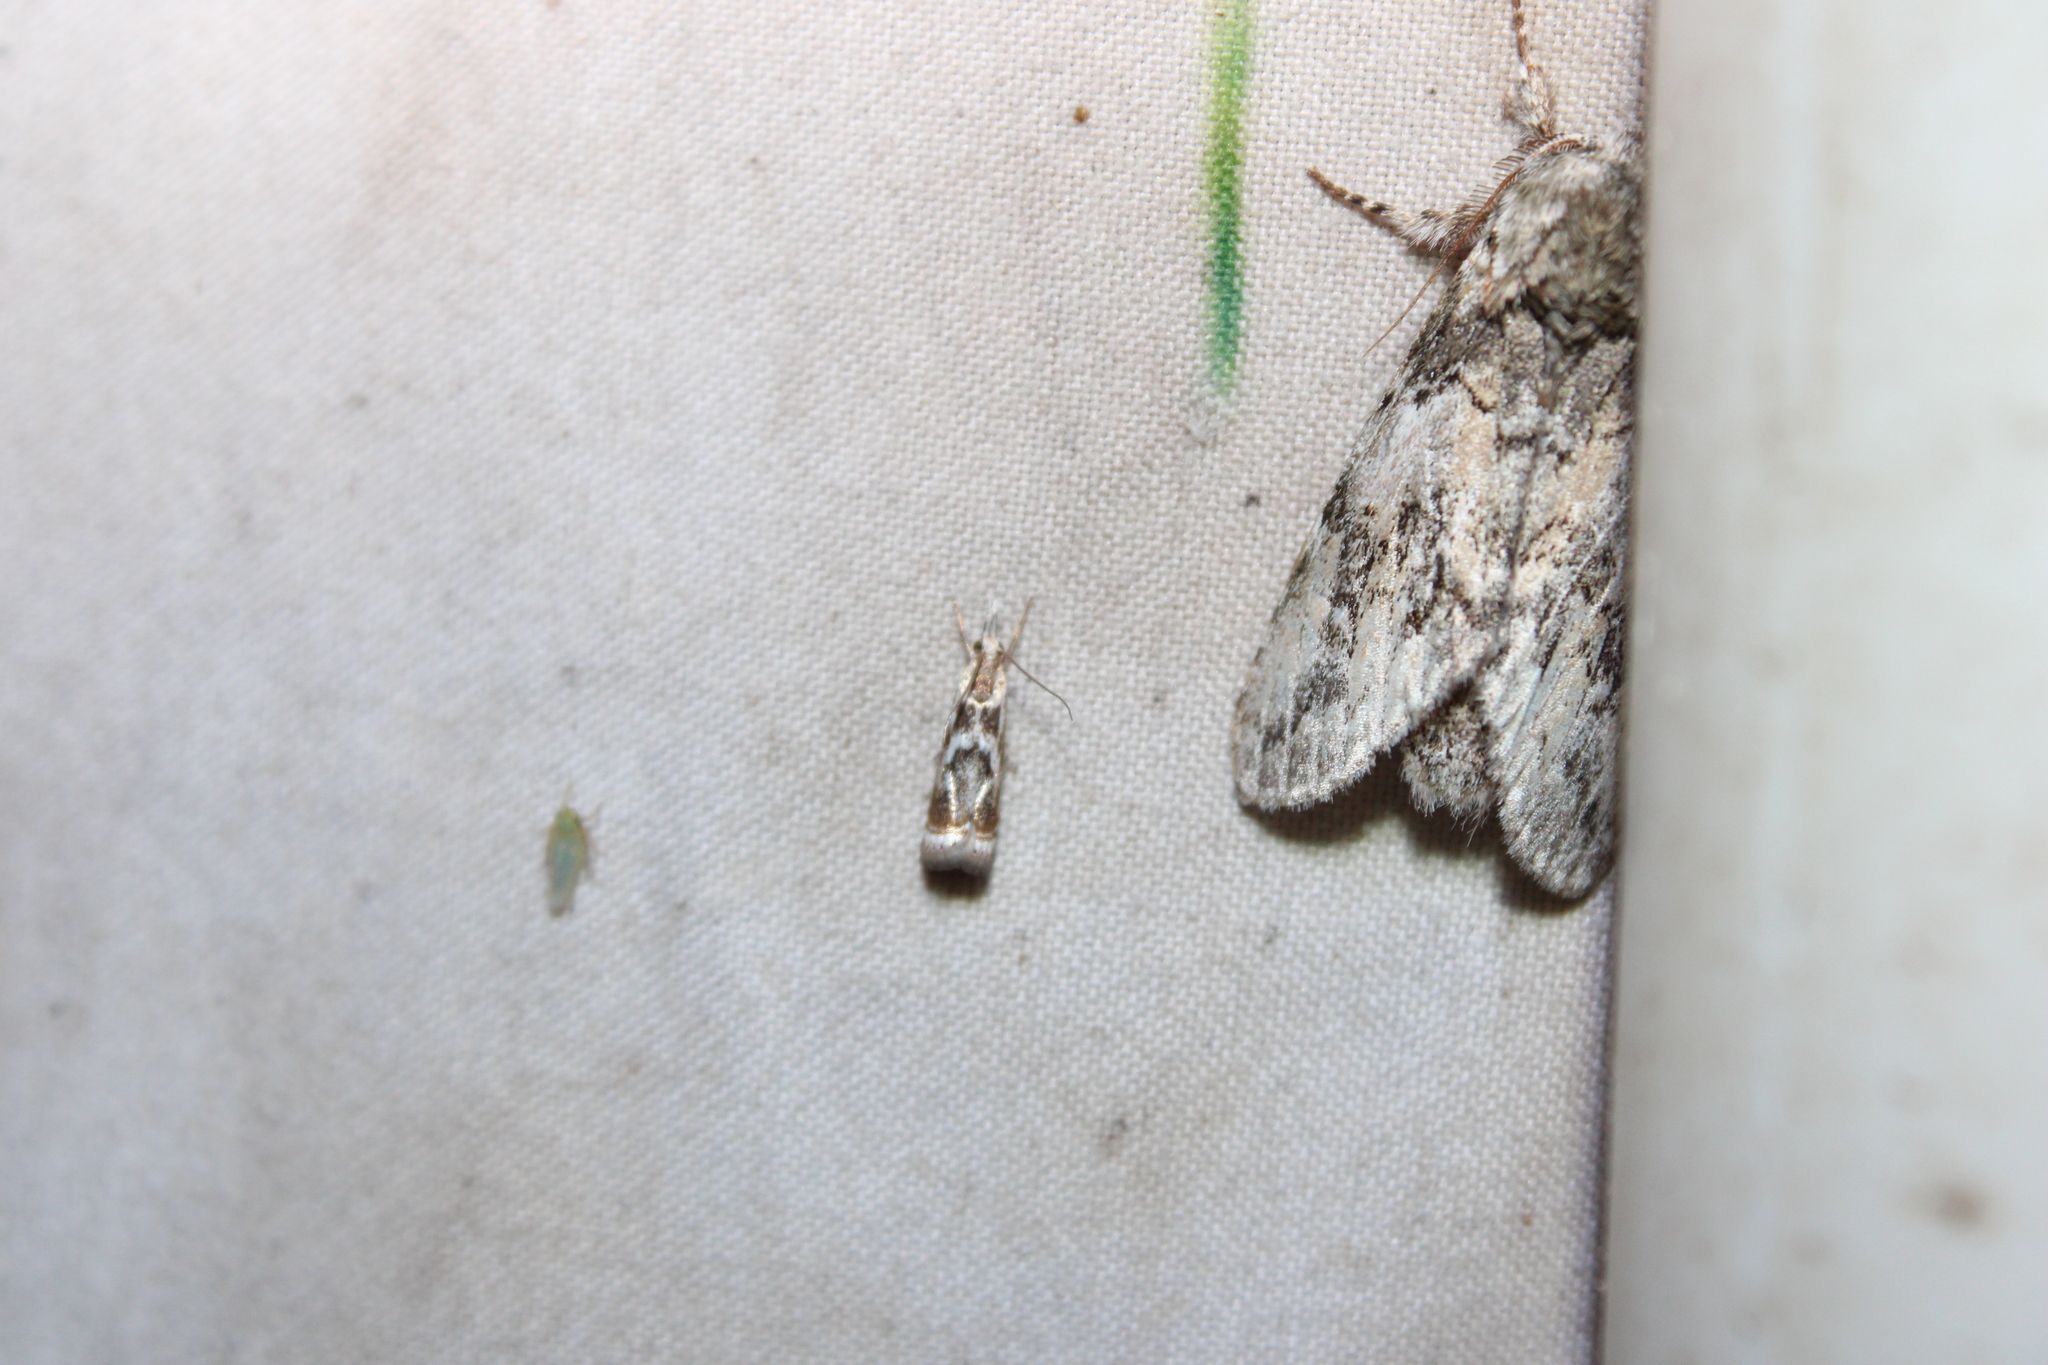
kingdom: Animalia
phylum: Arthropoda
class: Insecta
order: Lepidoptera
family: Crambidae
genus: Microcrambus
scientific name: Microcrambus elegans
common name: Elegant grass-veneer
